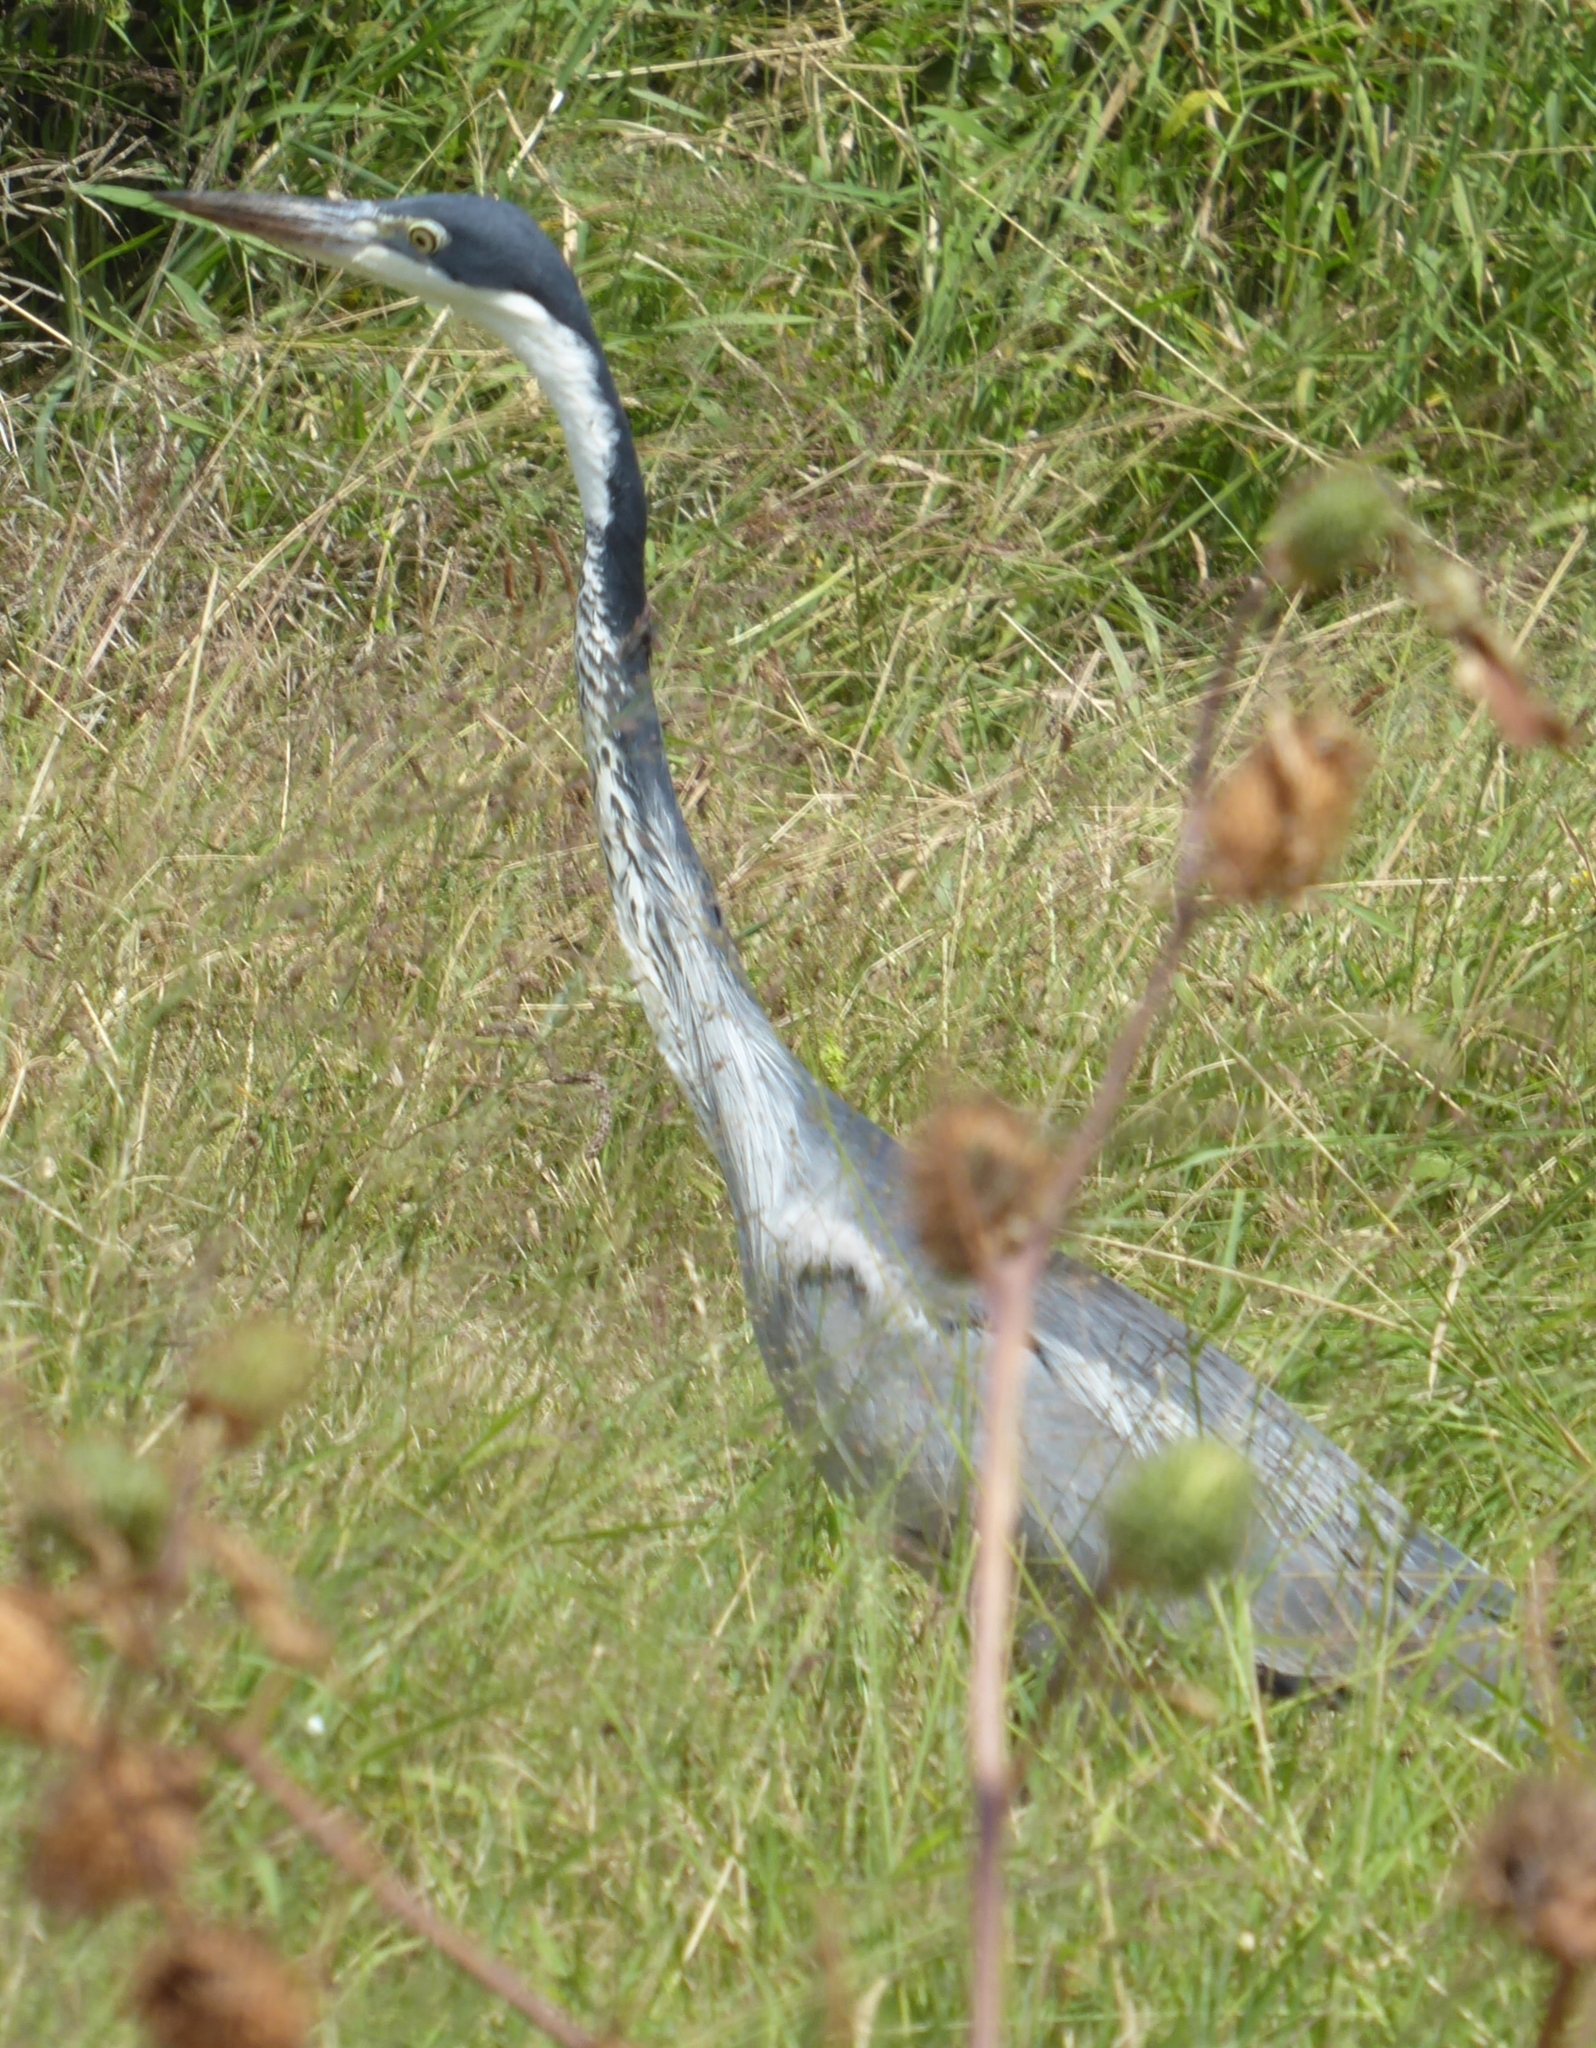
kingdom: Animalia
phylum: Chordata
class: Aves
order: Pelecaniformes
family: Ardeidae
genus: Ardea
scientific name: Ardea melanocephala
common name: Black-headed heron
